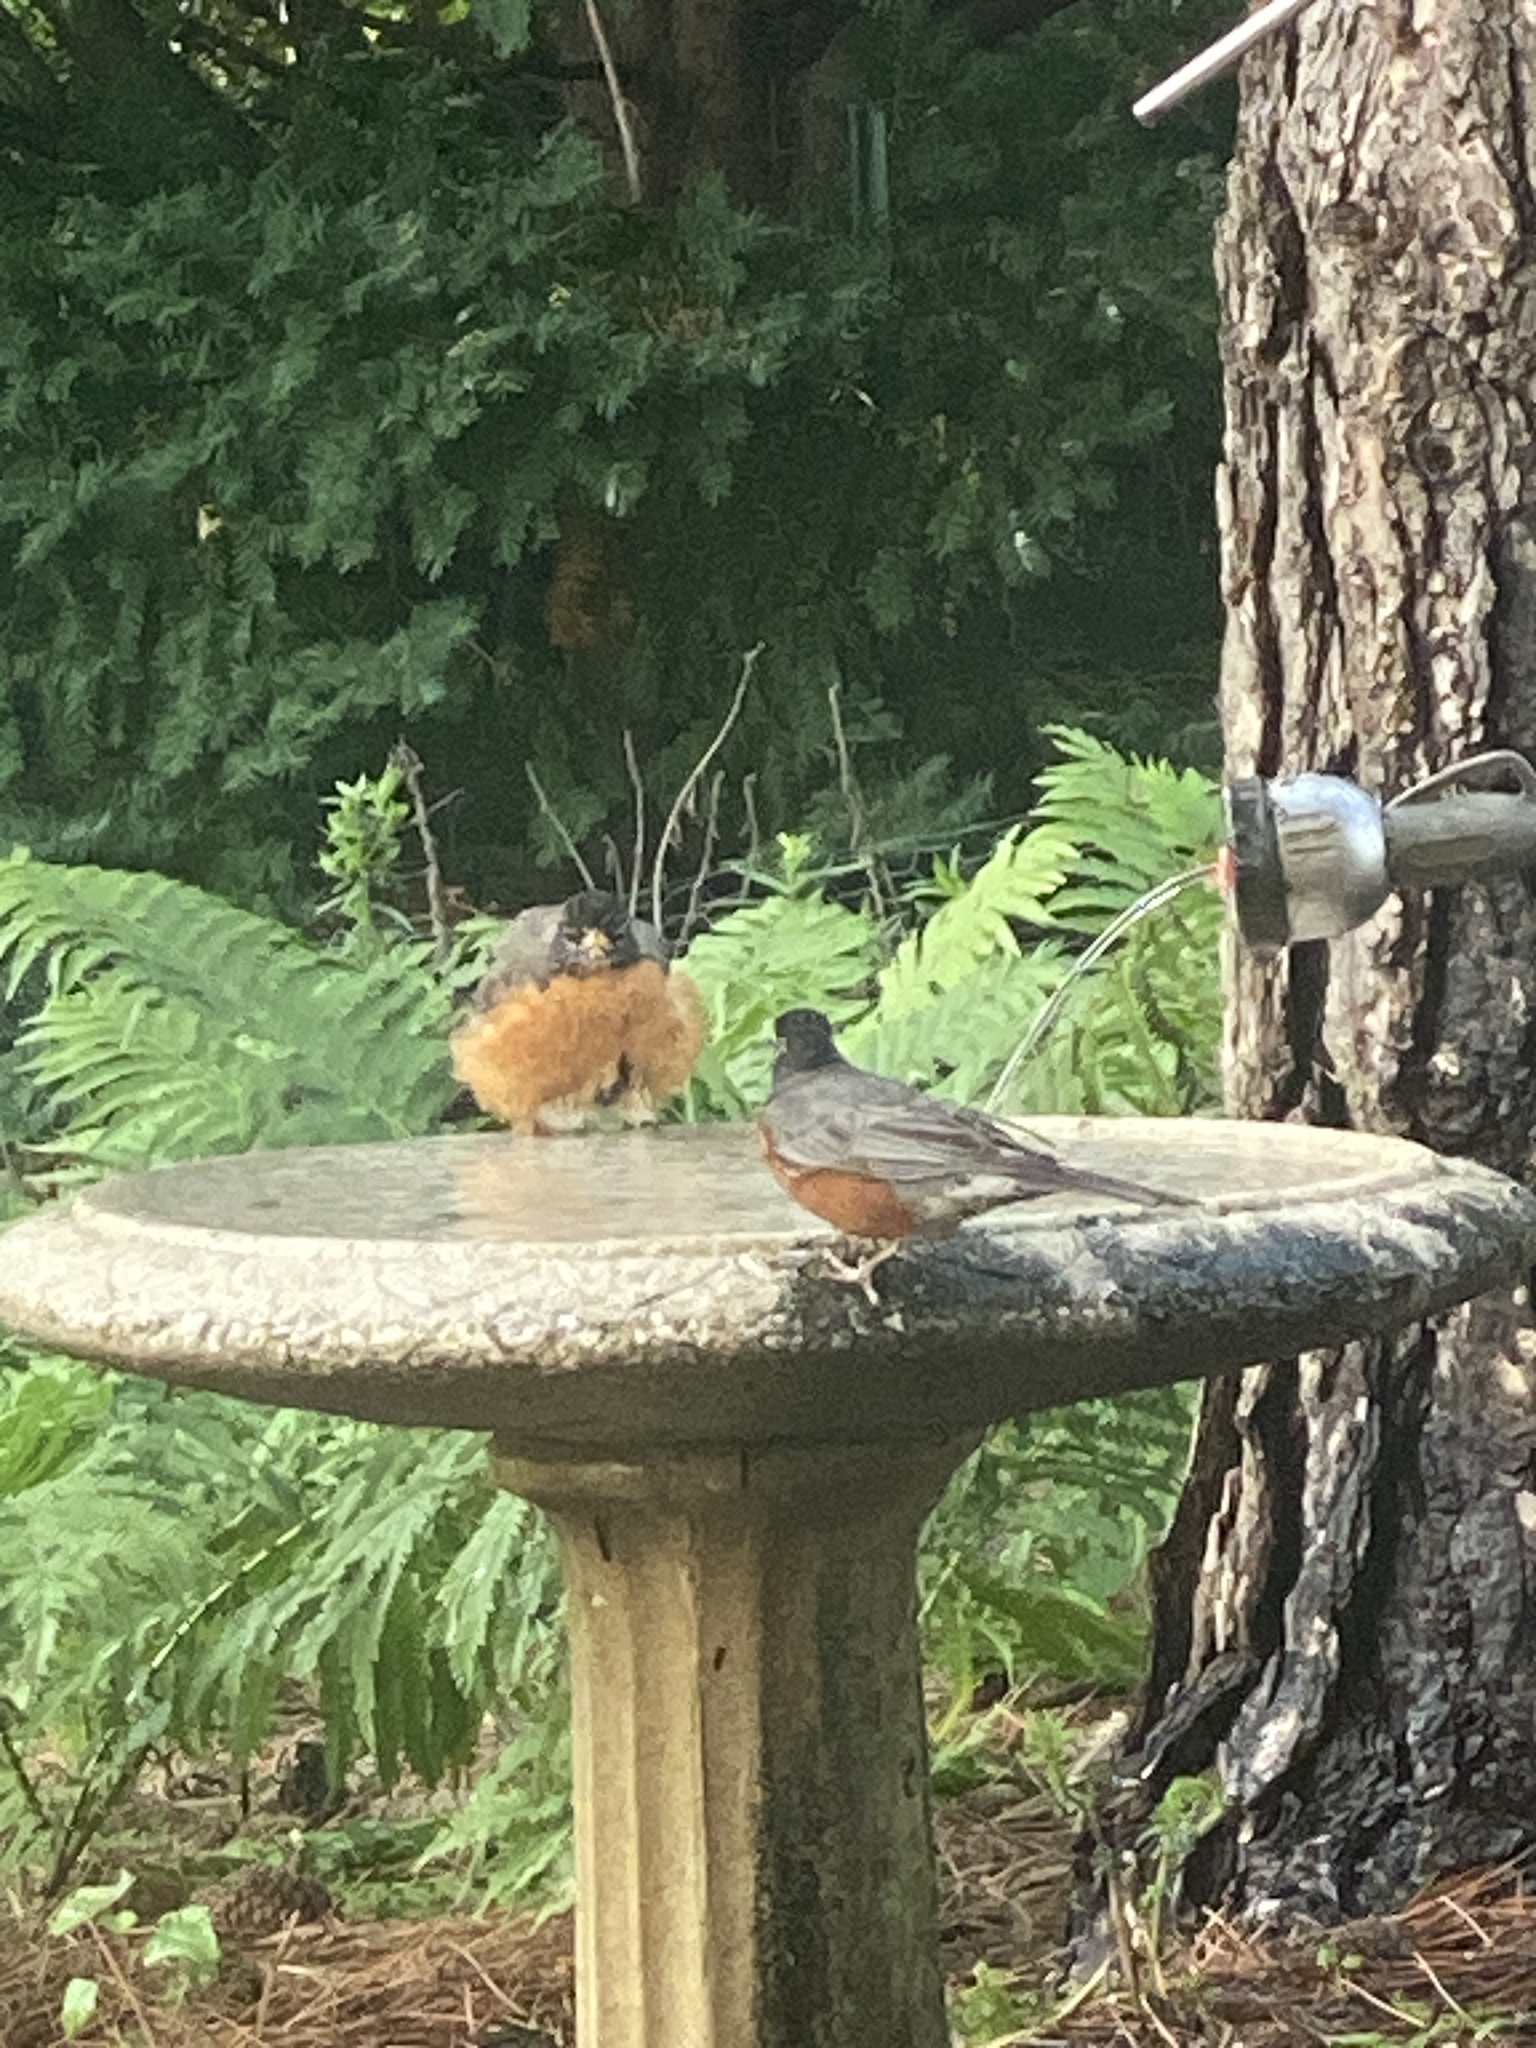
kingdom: Animalia
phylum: Chordata
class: Aves
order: Passeriformes
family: Turdidae
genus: Turdus
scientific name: Turdus migratorius
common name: American robin
